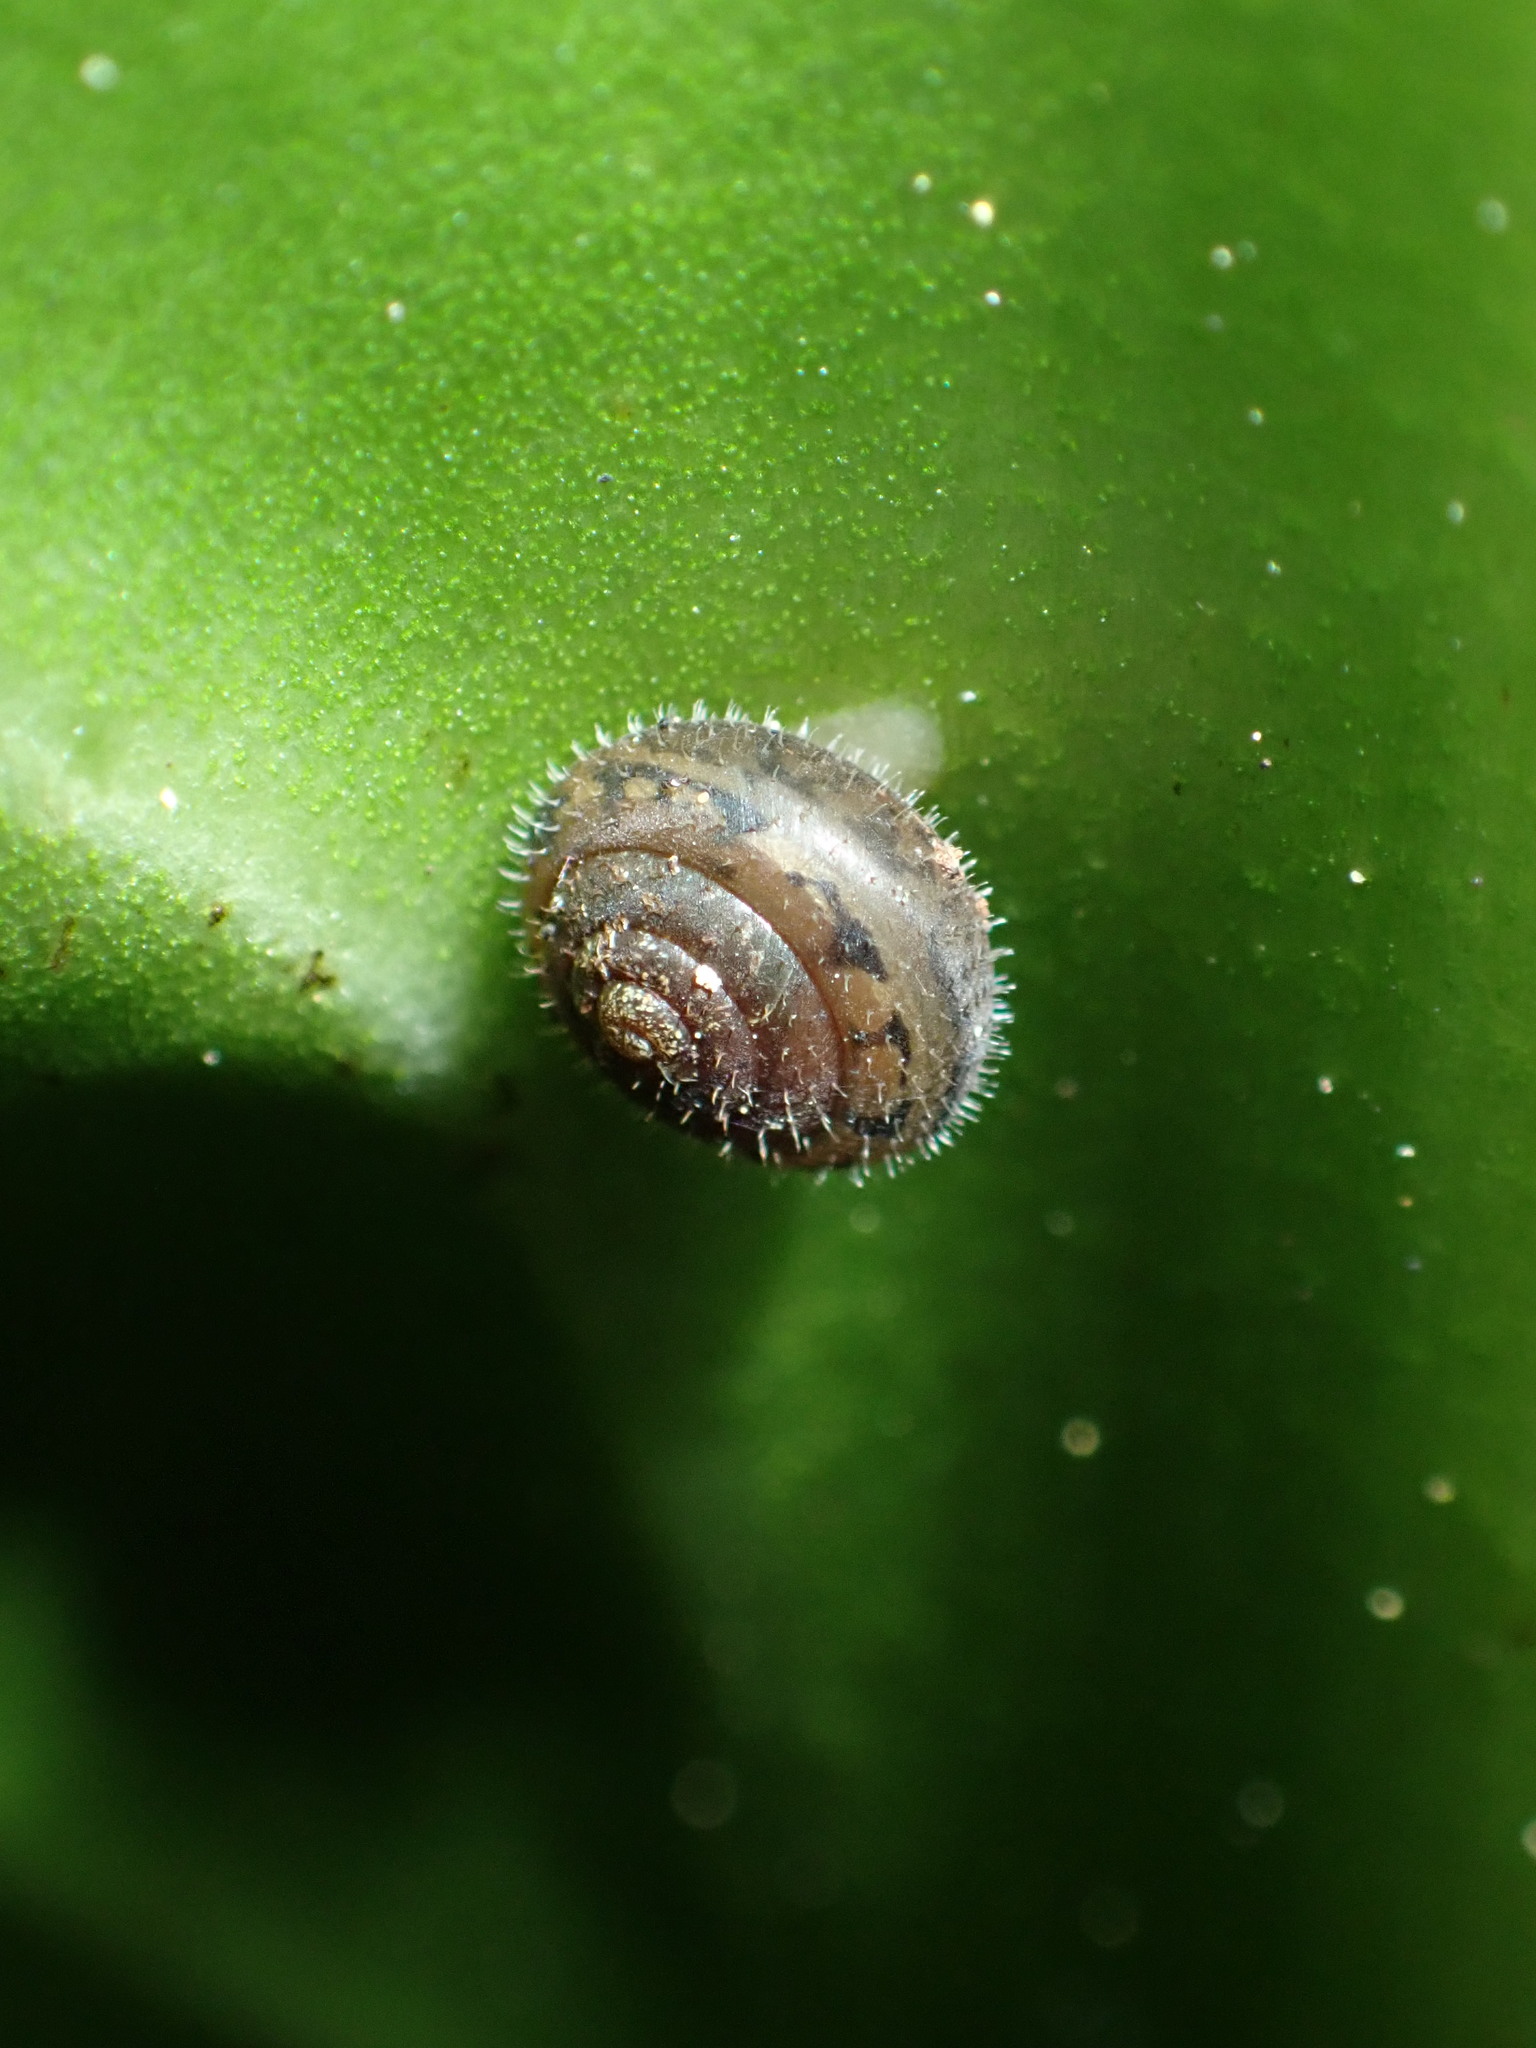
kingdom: Animalia
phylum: Mollusca
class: Gastropoda
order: Stylommatophora
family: Polygyridae
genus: Cryptomastix
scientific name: Cryptomastix germana
